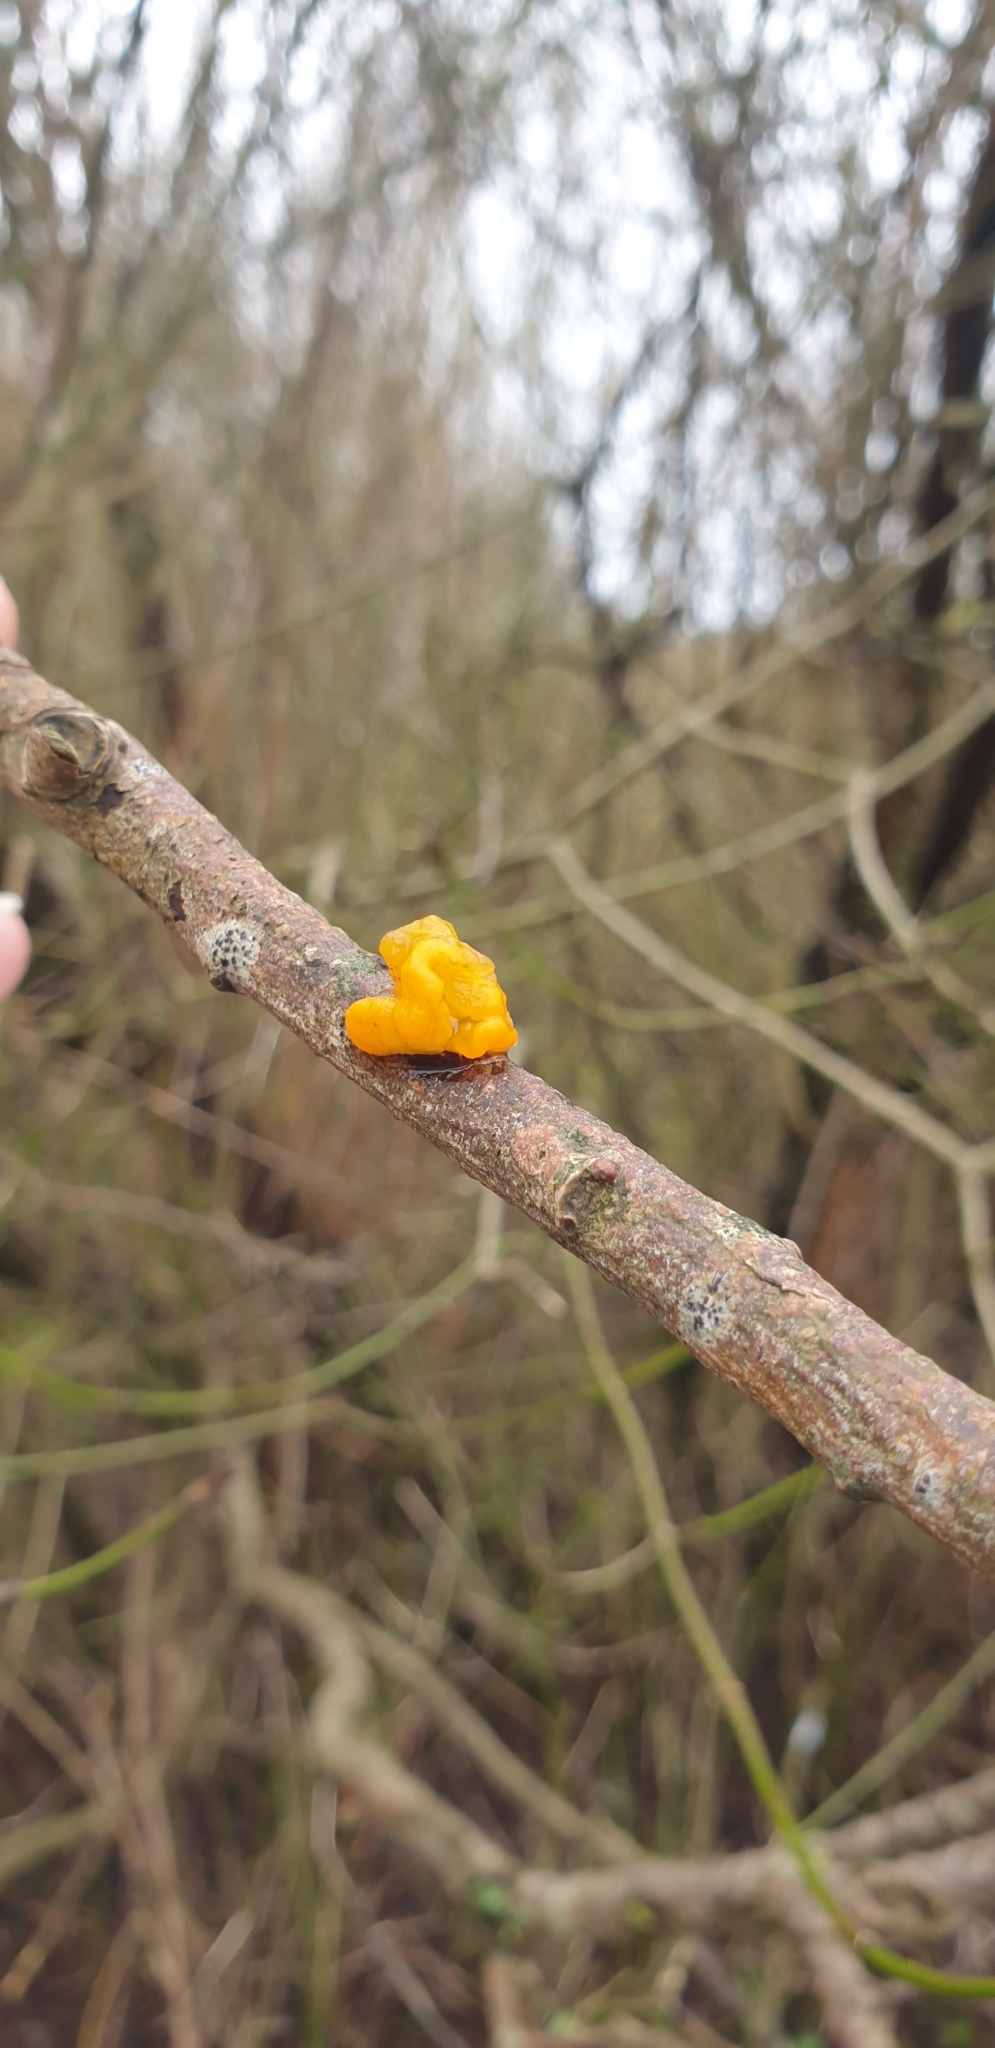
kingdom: Fungi
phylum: Basidiomycota
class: Tremellomycetes
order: Tremellales
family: Tremellaceae
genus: Tremella
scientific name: Tremella mesenterica
